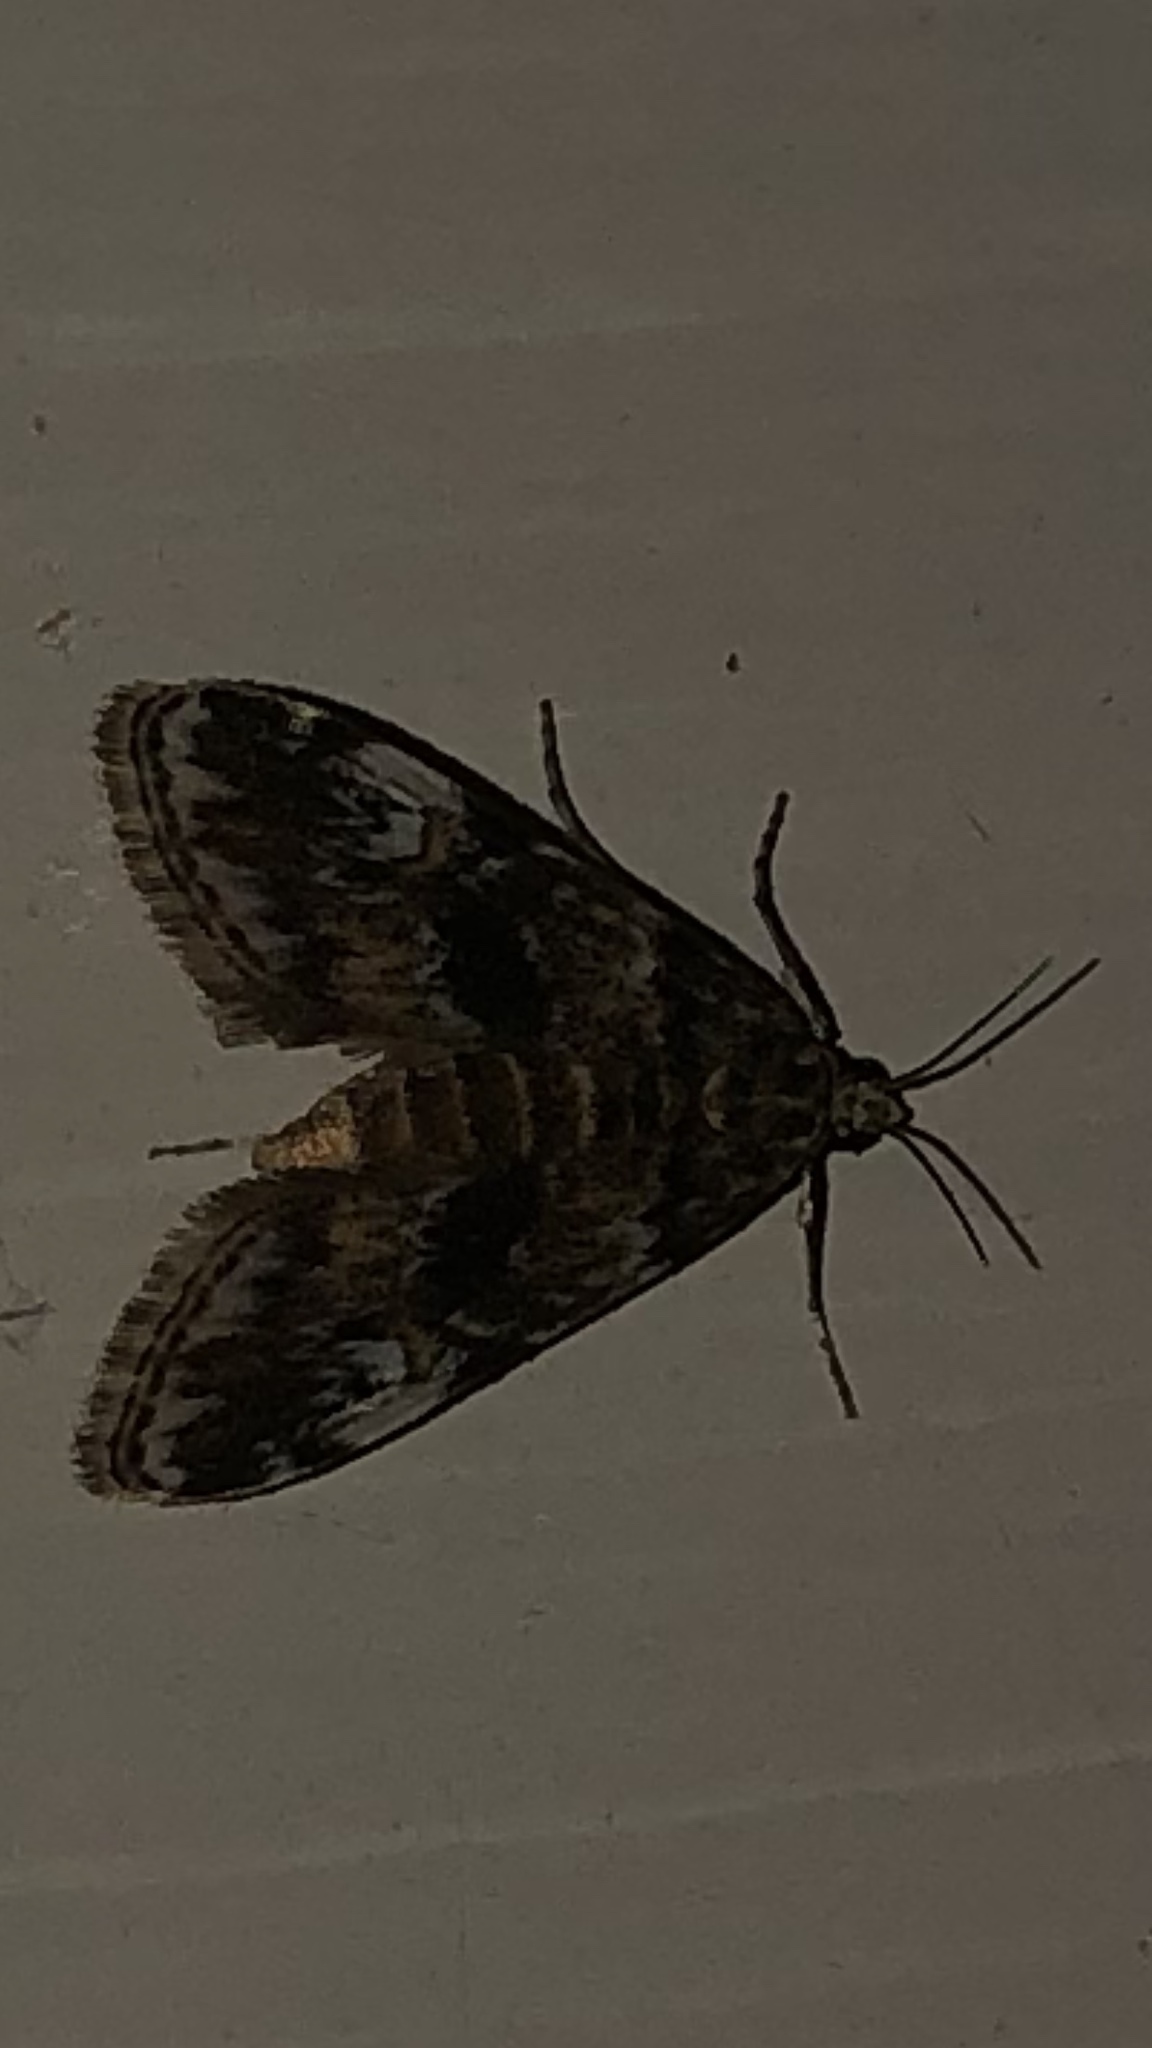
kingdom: Animalia
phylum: Arthropoda
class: Insecta
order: Lepidoptera
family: Crambidae
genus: Elophila
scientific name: Elophila obliteralis
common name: Waterlily leafcutter moth
